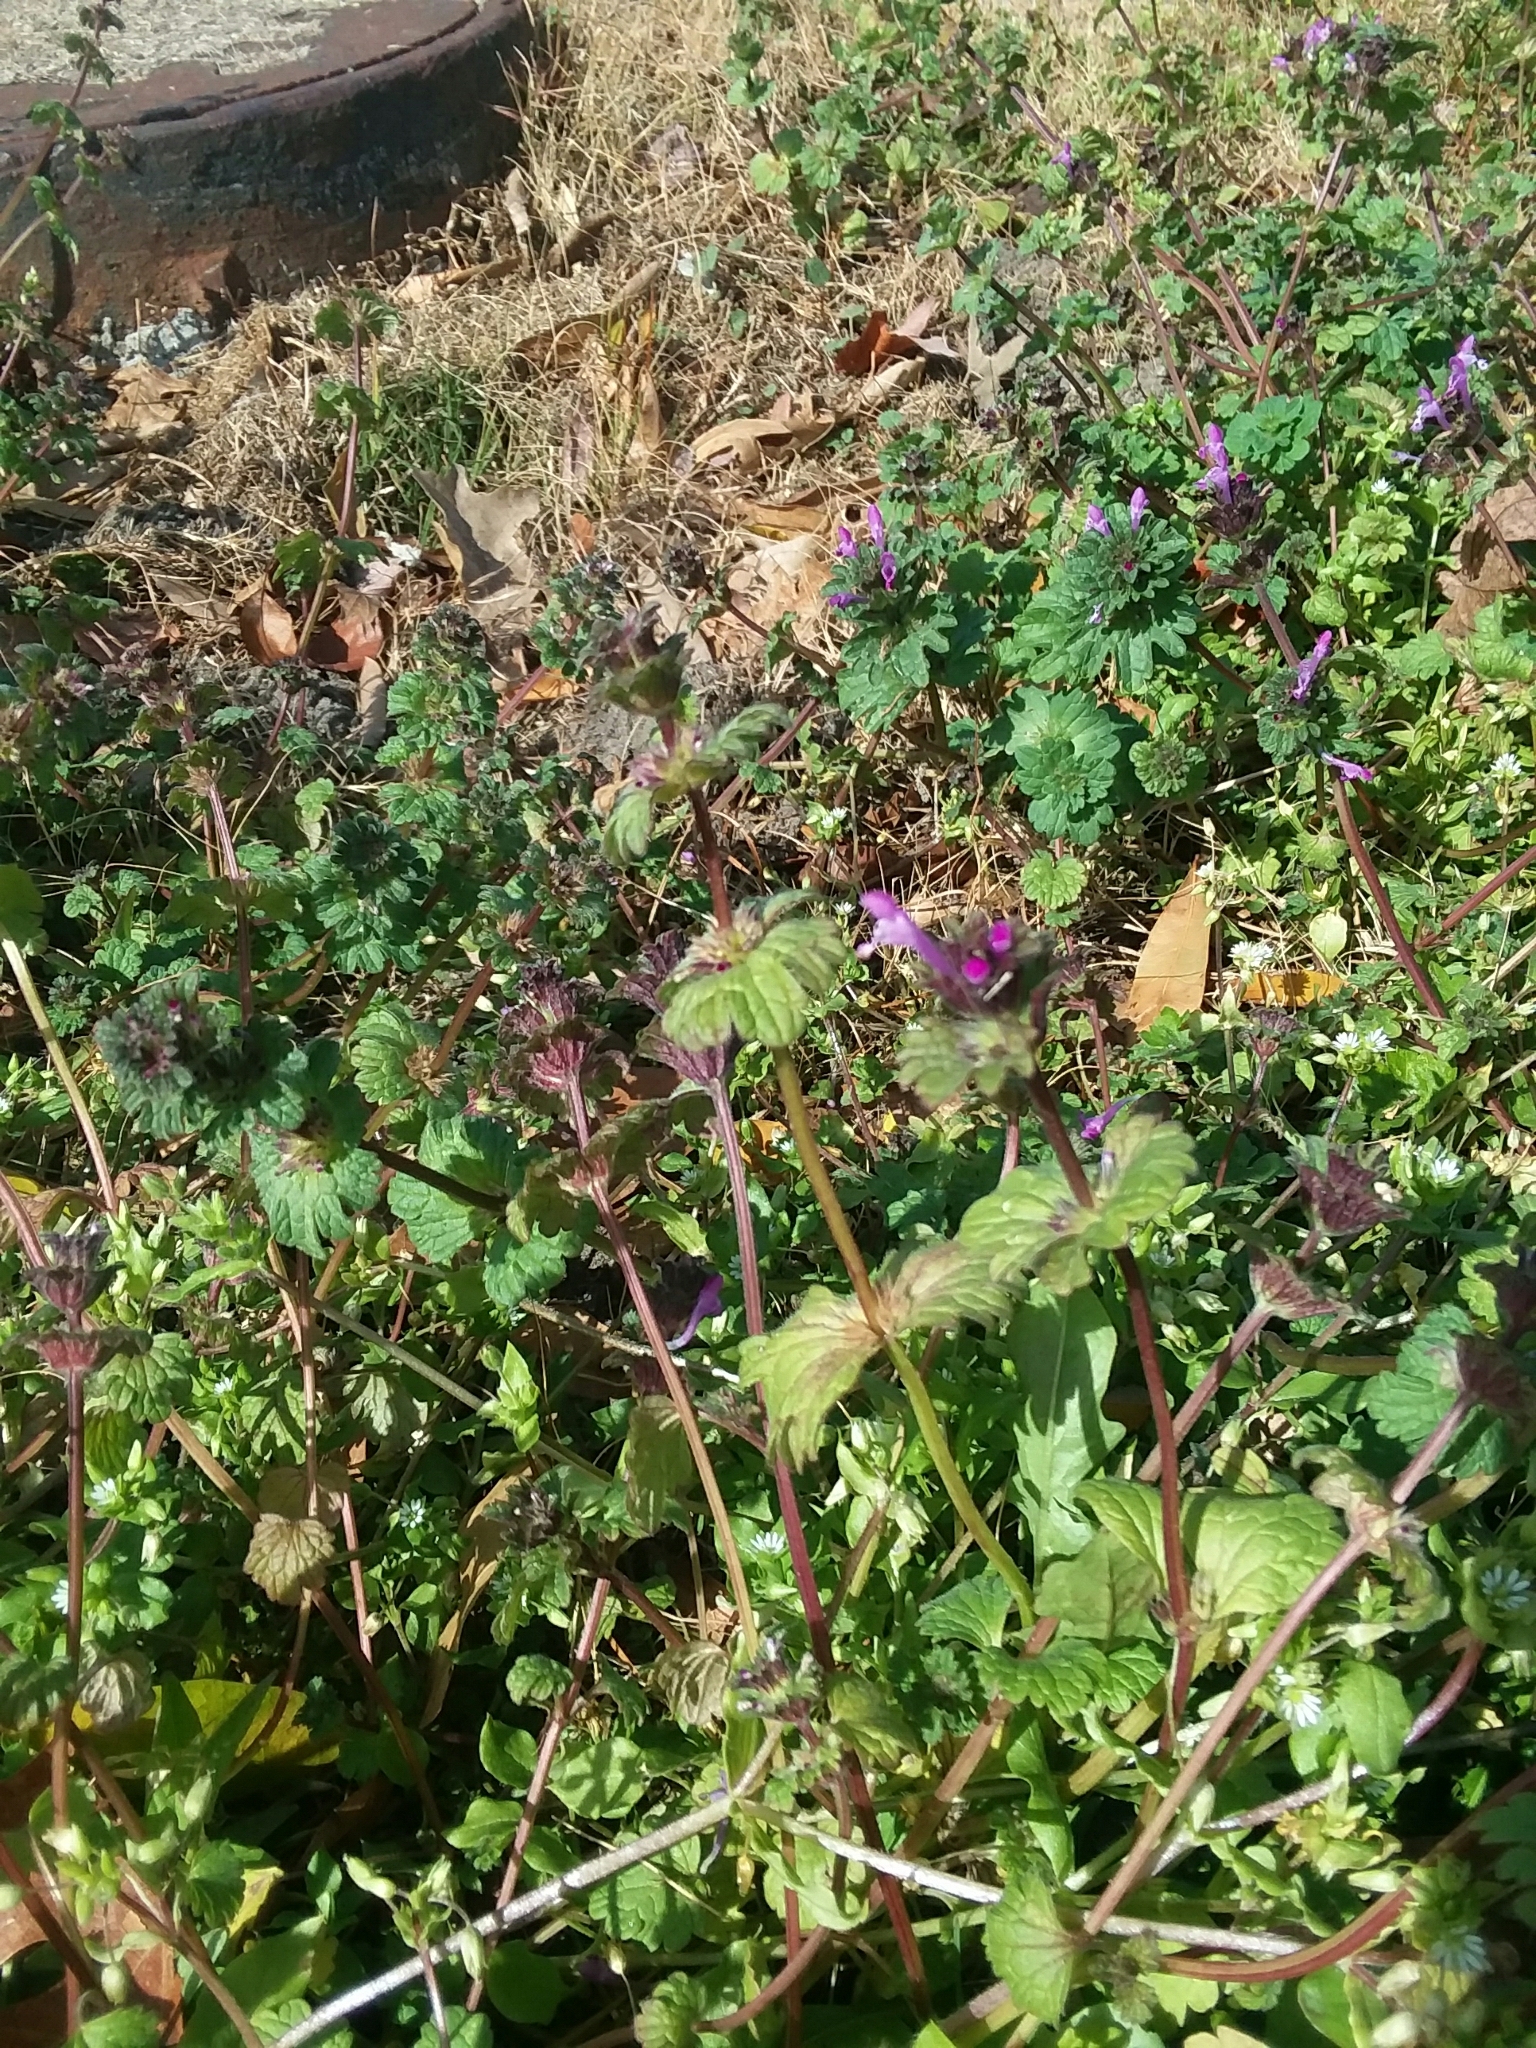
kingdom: Plantae
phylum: Tracheophyta
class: Magnoliopsida
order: Lamiales
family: Lamiaceae
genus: Lamium
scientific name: Lamium amplexicaule
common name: Henbit dead-nettle
